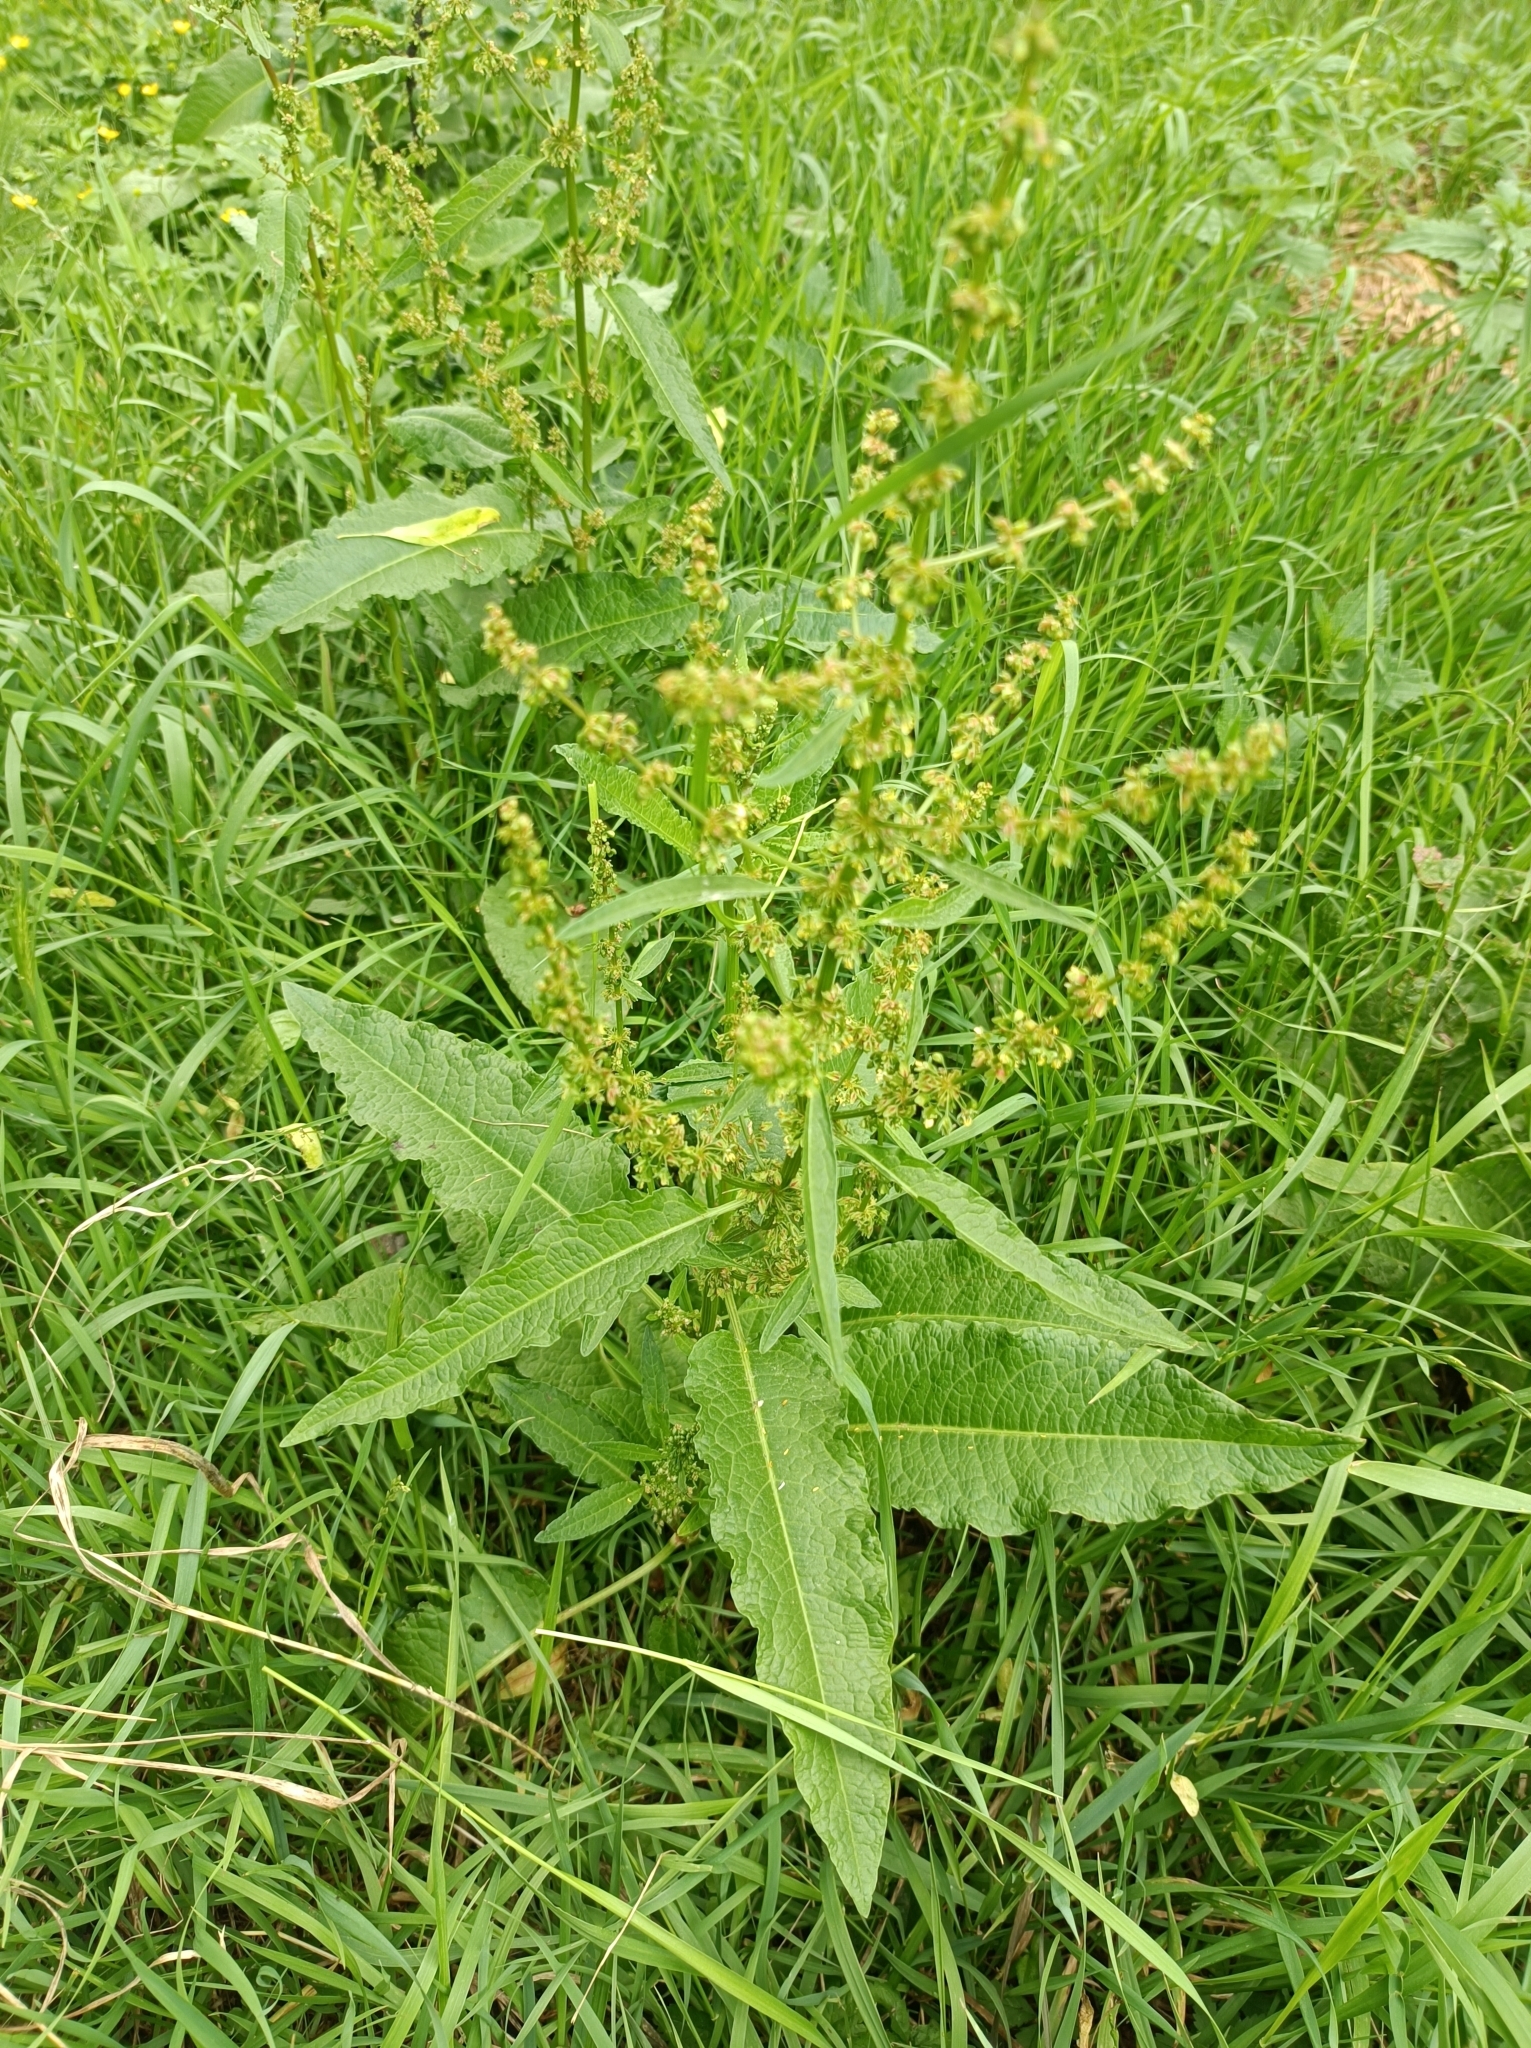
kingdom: Plantae
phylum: Tracheophyta
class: Magnoliopsida
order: Caryophyllales
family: Polygonaceae
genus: Rumex
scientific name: Rumex obtusifolius
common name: Bitter dock
